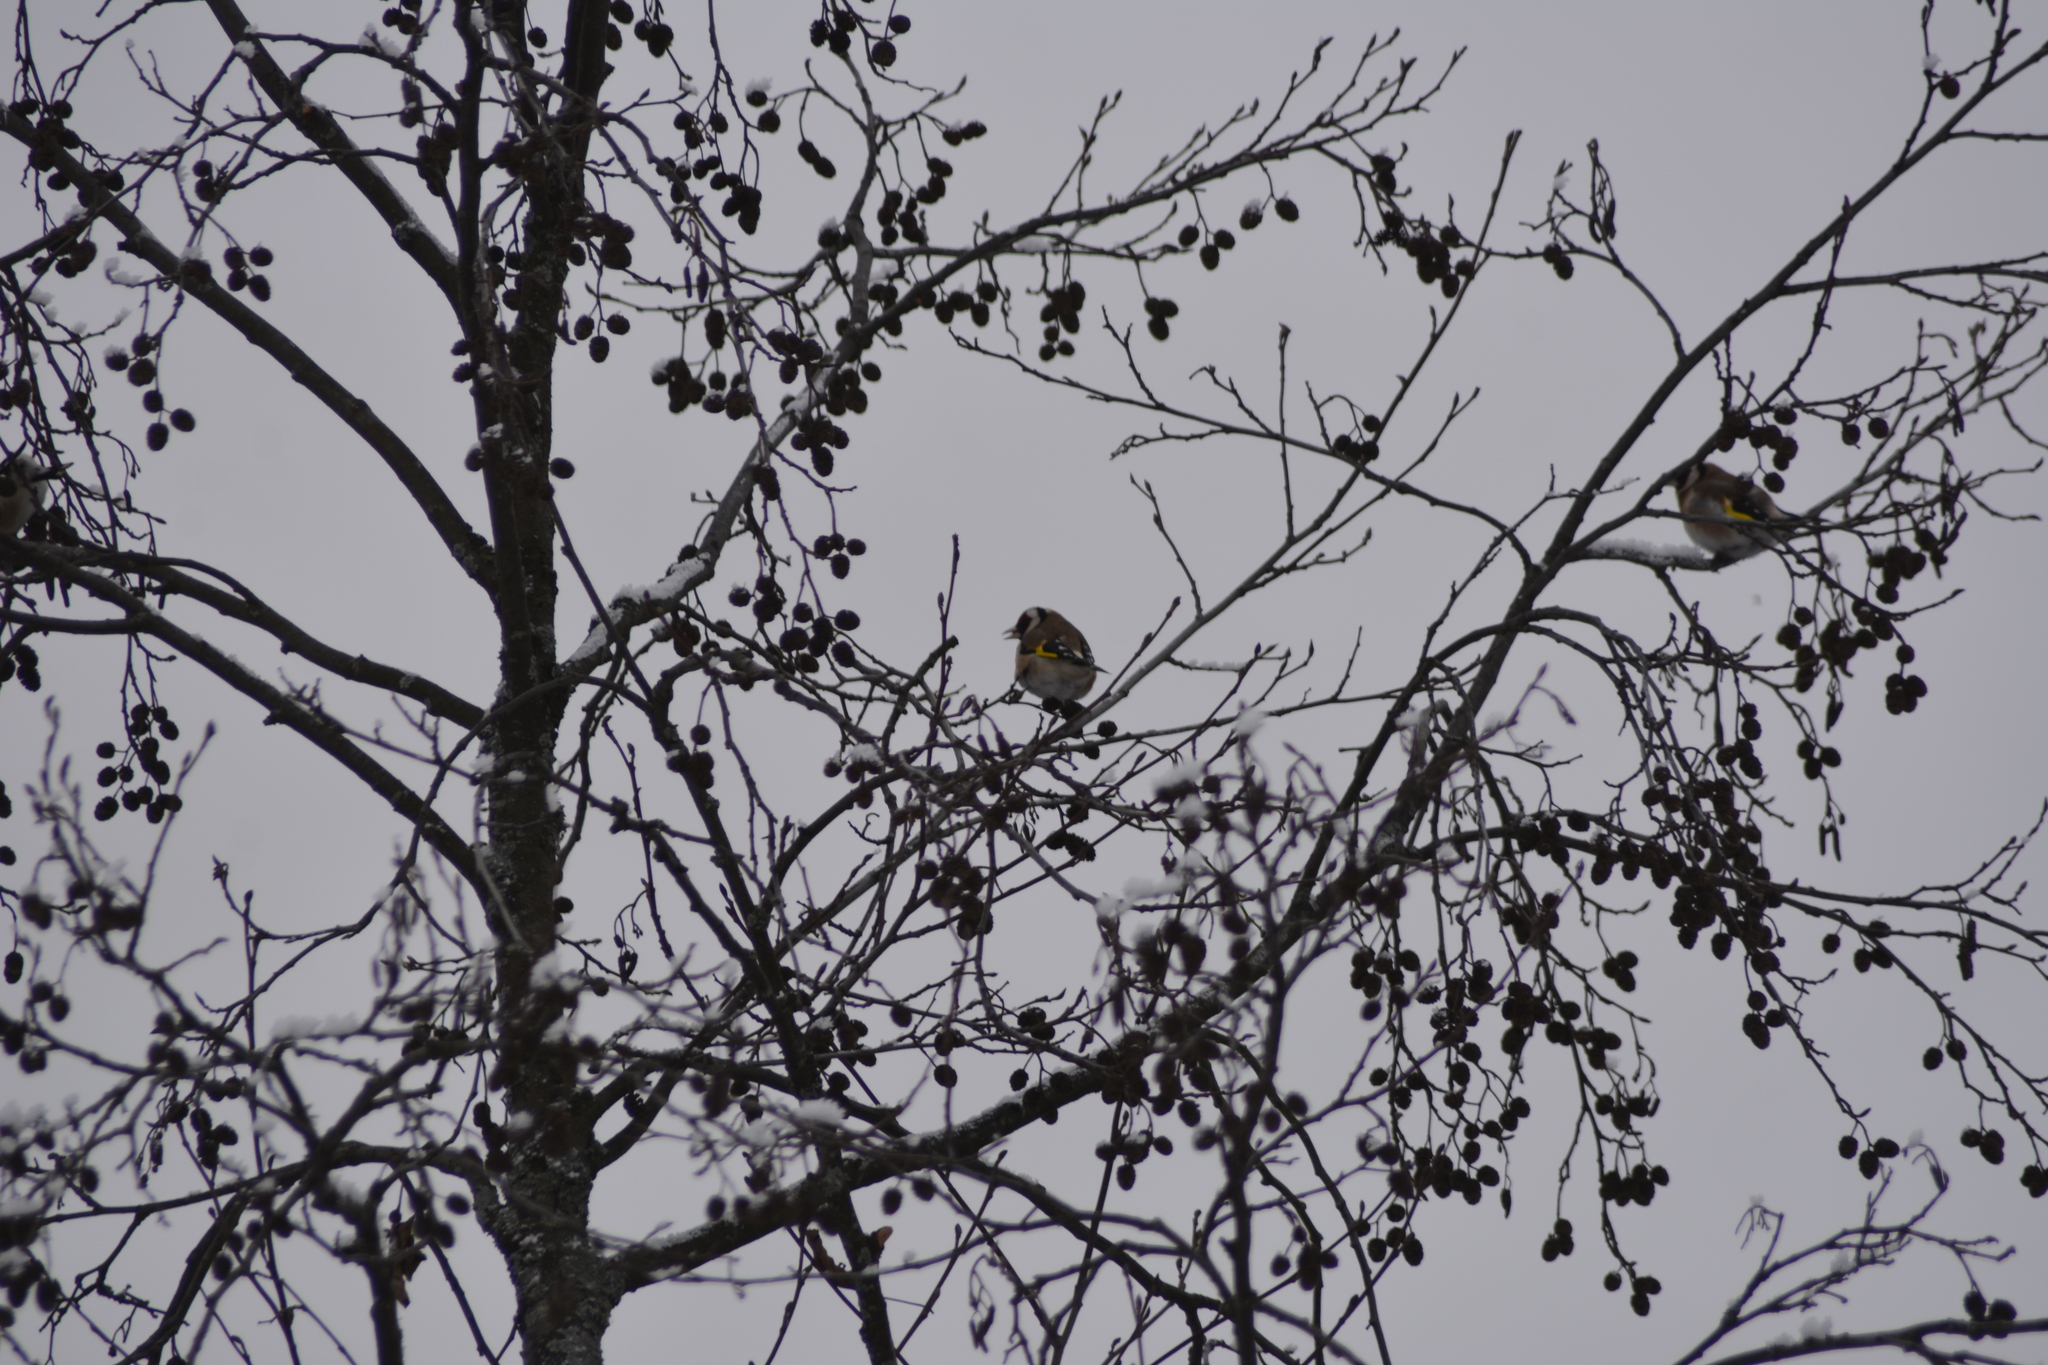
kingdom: Animalia
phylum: Chordata
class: Aves
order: Passeriformes
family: Fringillidae
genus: Carduelis
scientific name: Carduelis carduelis
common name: European goldfinch
